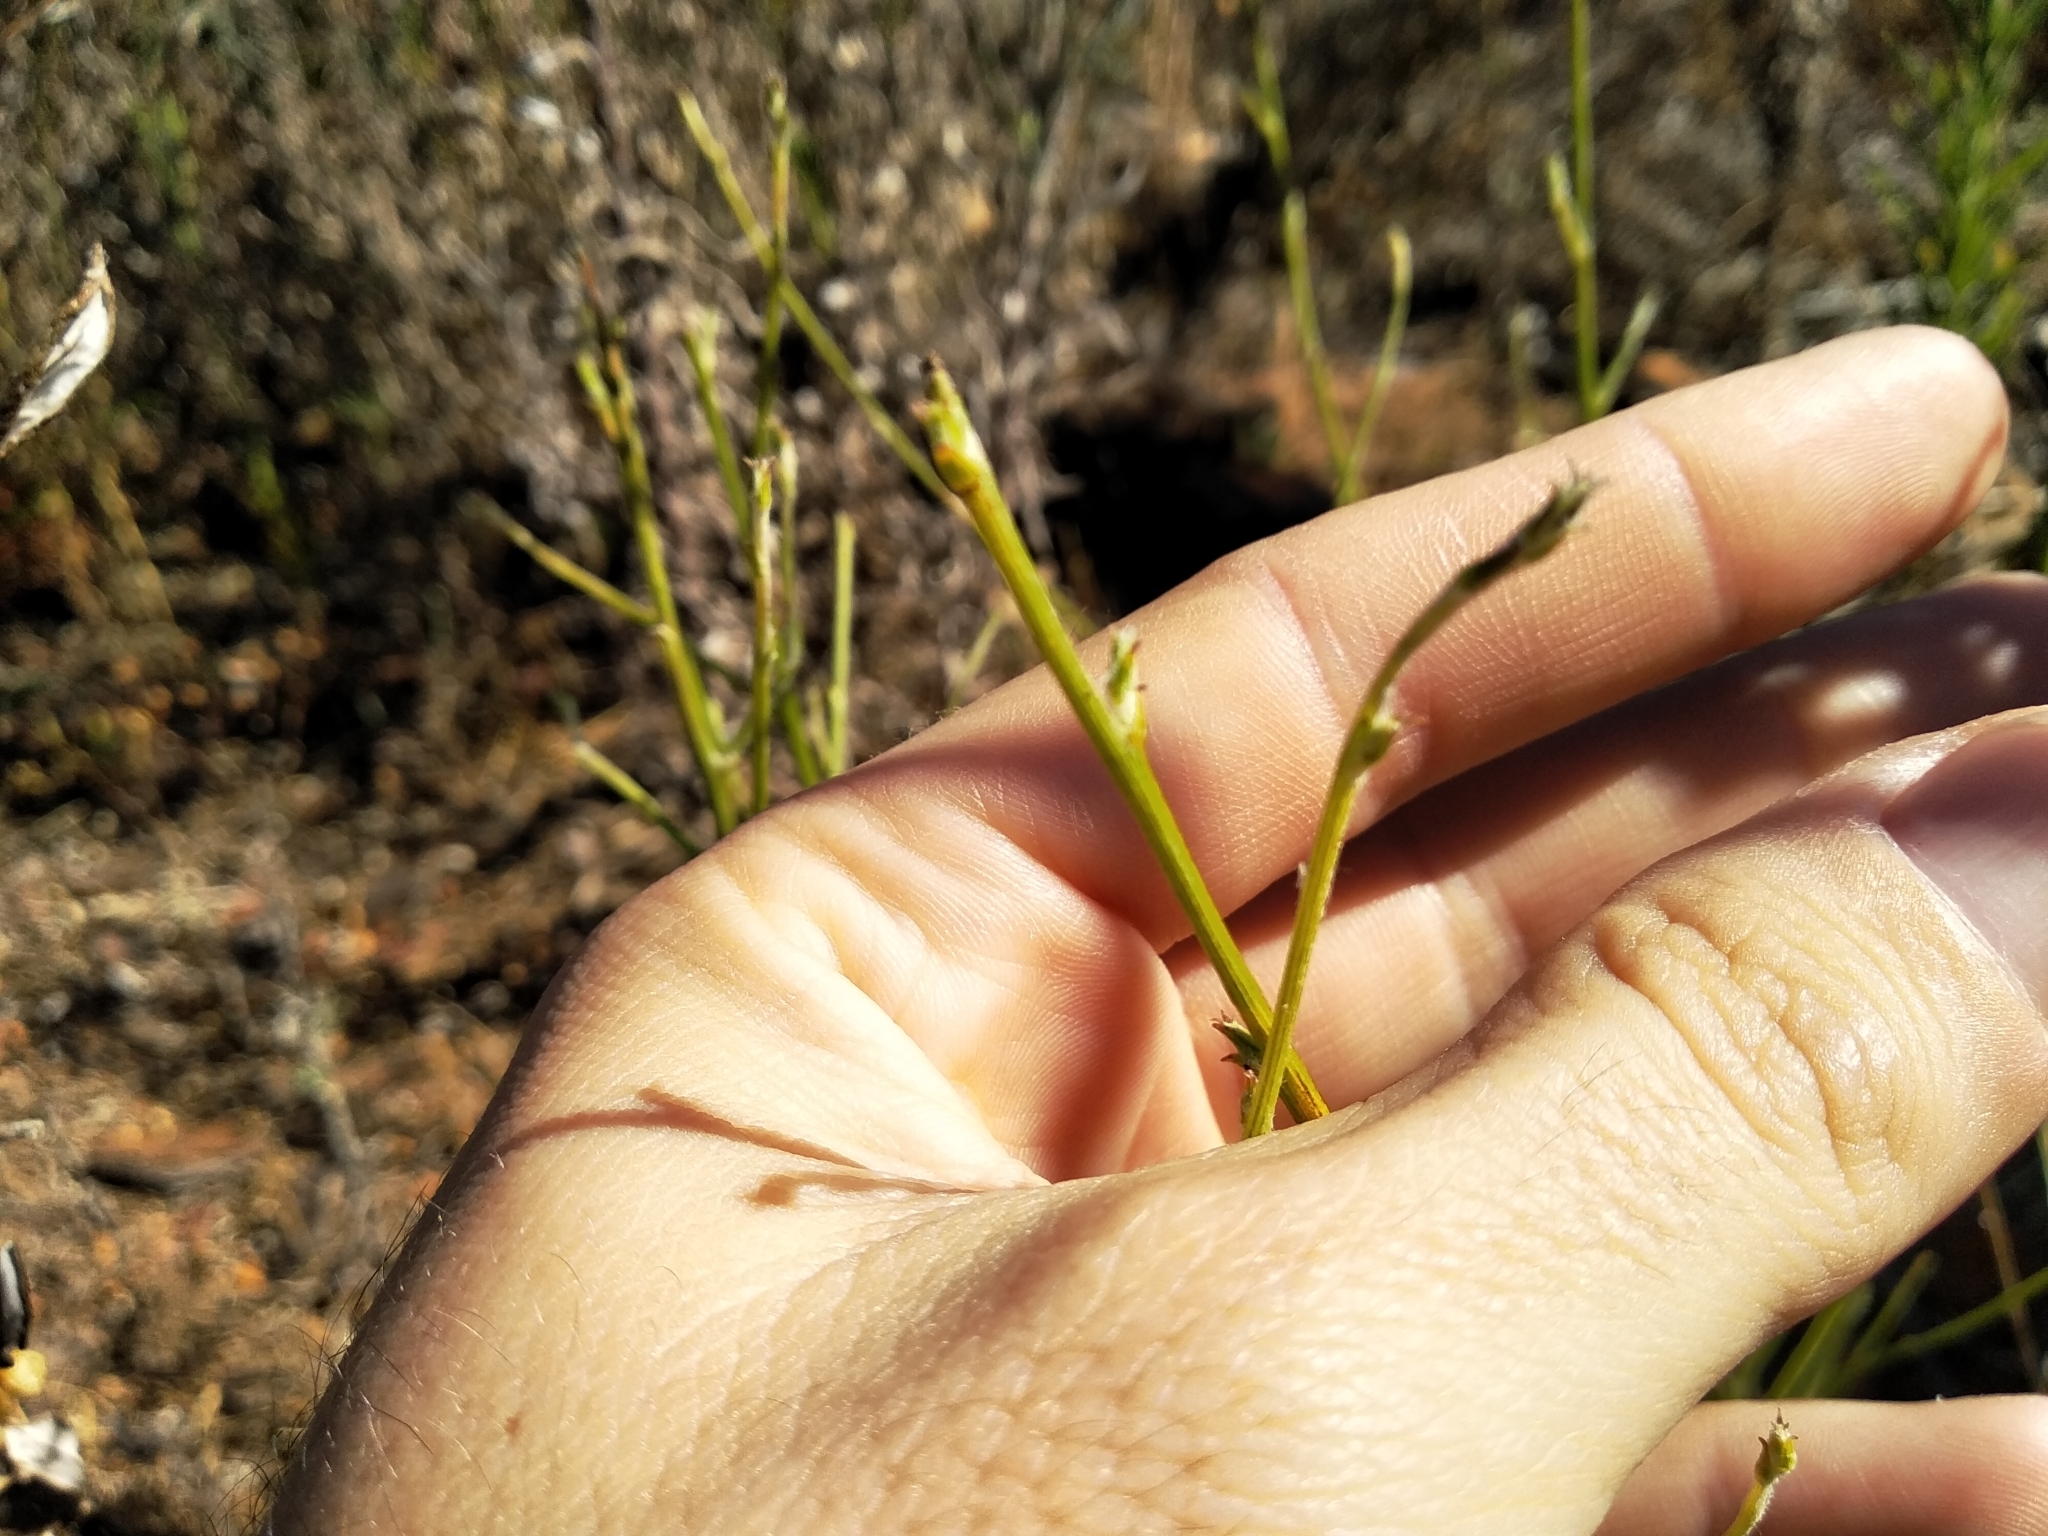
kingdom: Plantae
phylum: Tracheophyta
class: Magnoliopsida
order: Asterales
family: Asteraceae
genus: Senecio
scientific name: Senecio pubigerus
